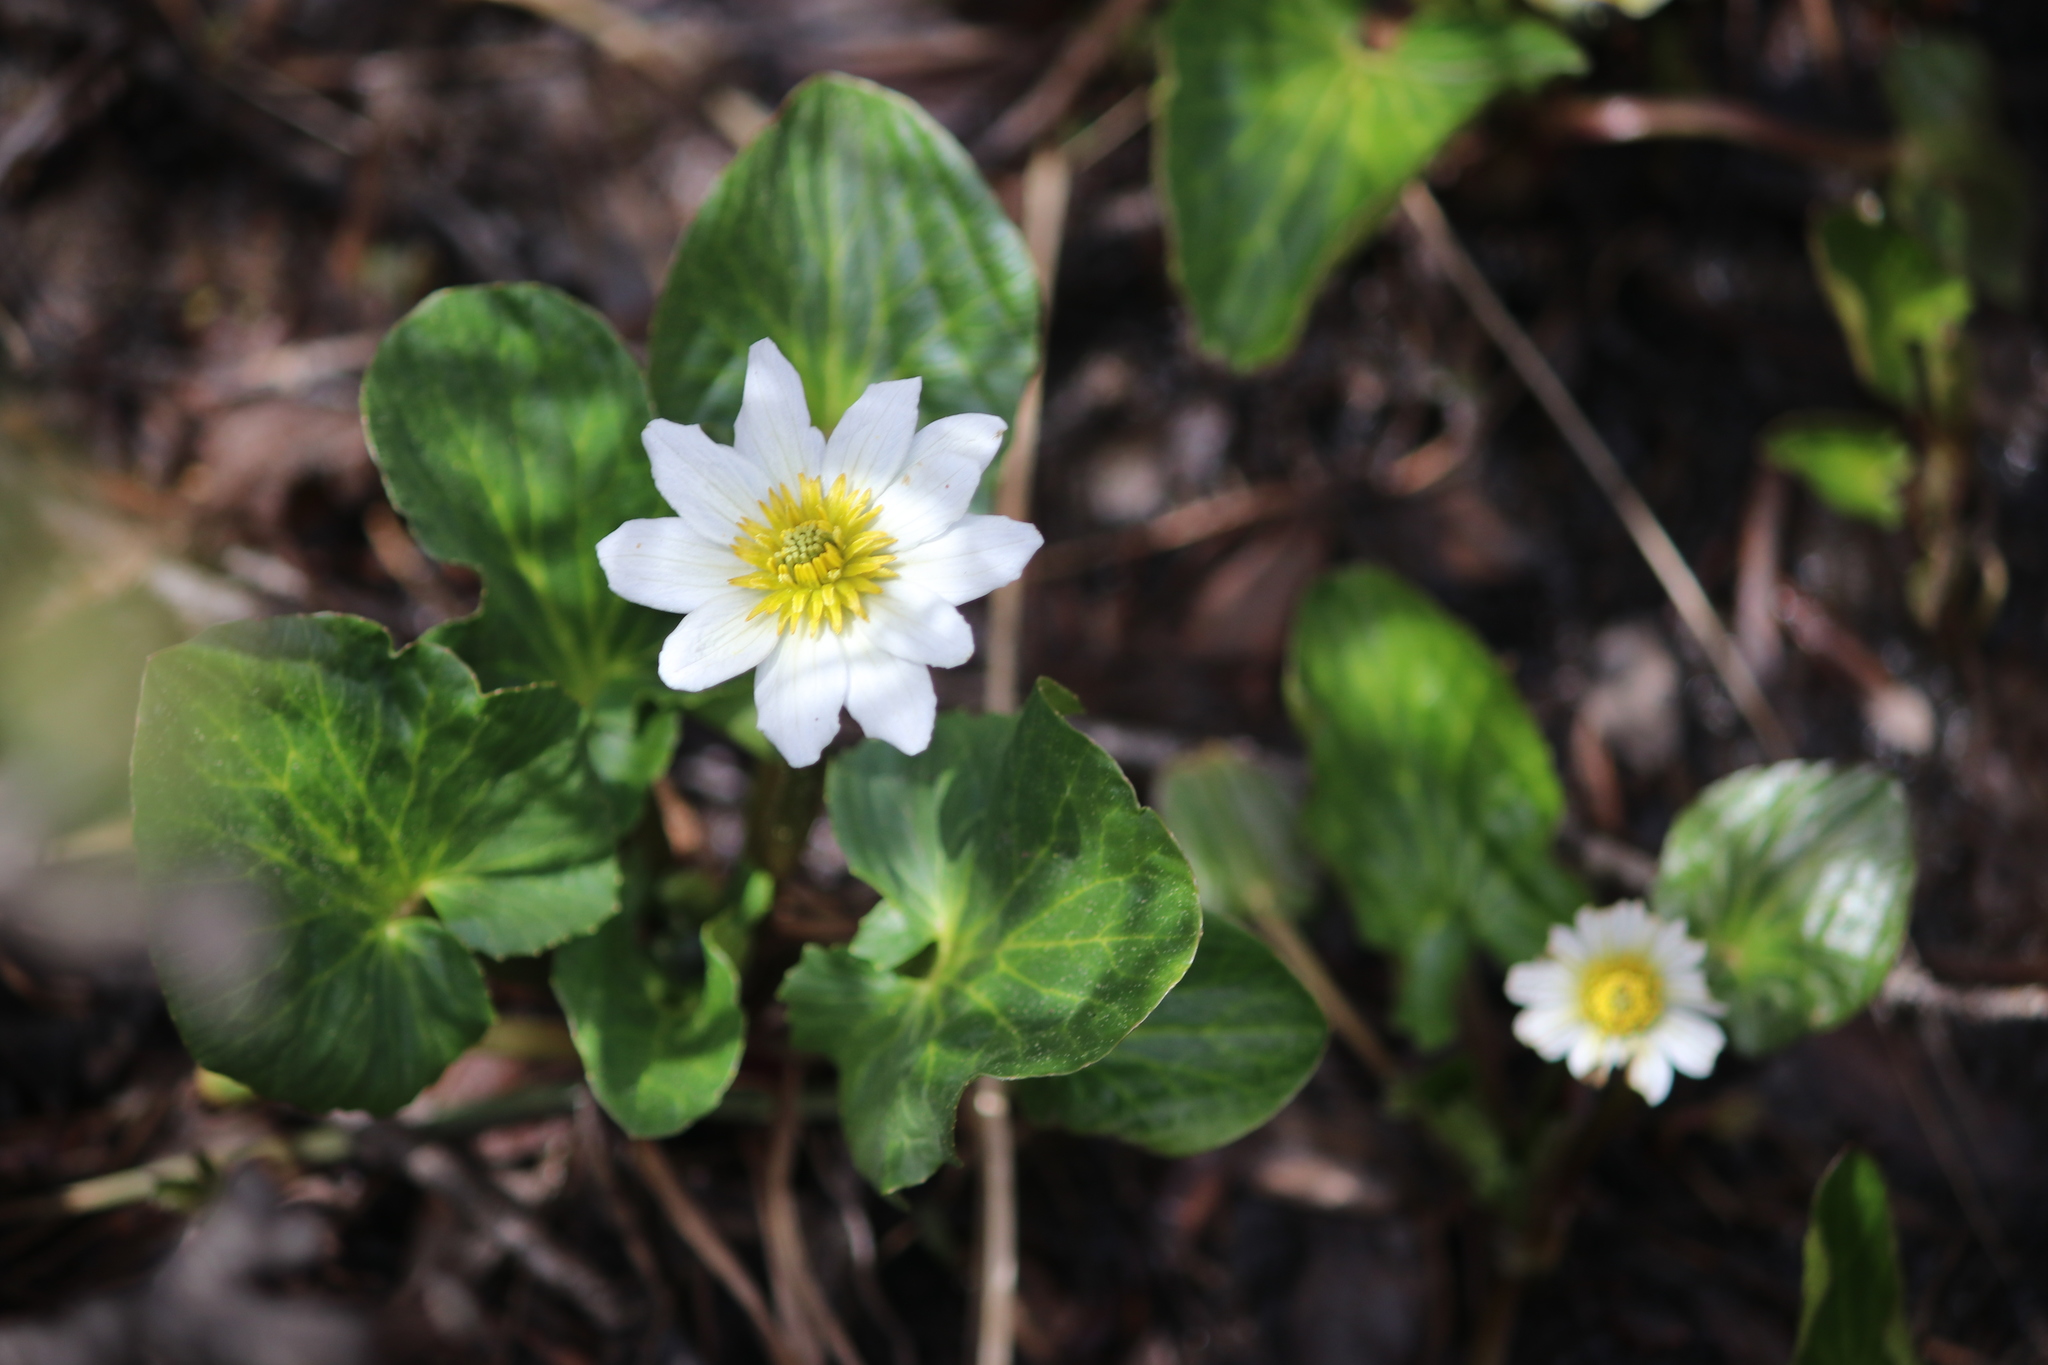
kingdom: Plantae
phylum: Tracheophyta
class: Magnoliopsida
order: Ranunculales
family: Ranunculaceae
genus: Caltha
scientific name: Caltha leptosepala
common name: Elkslip
